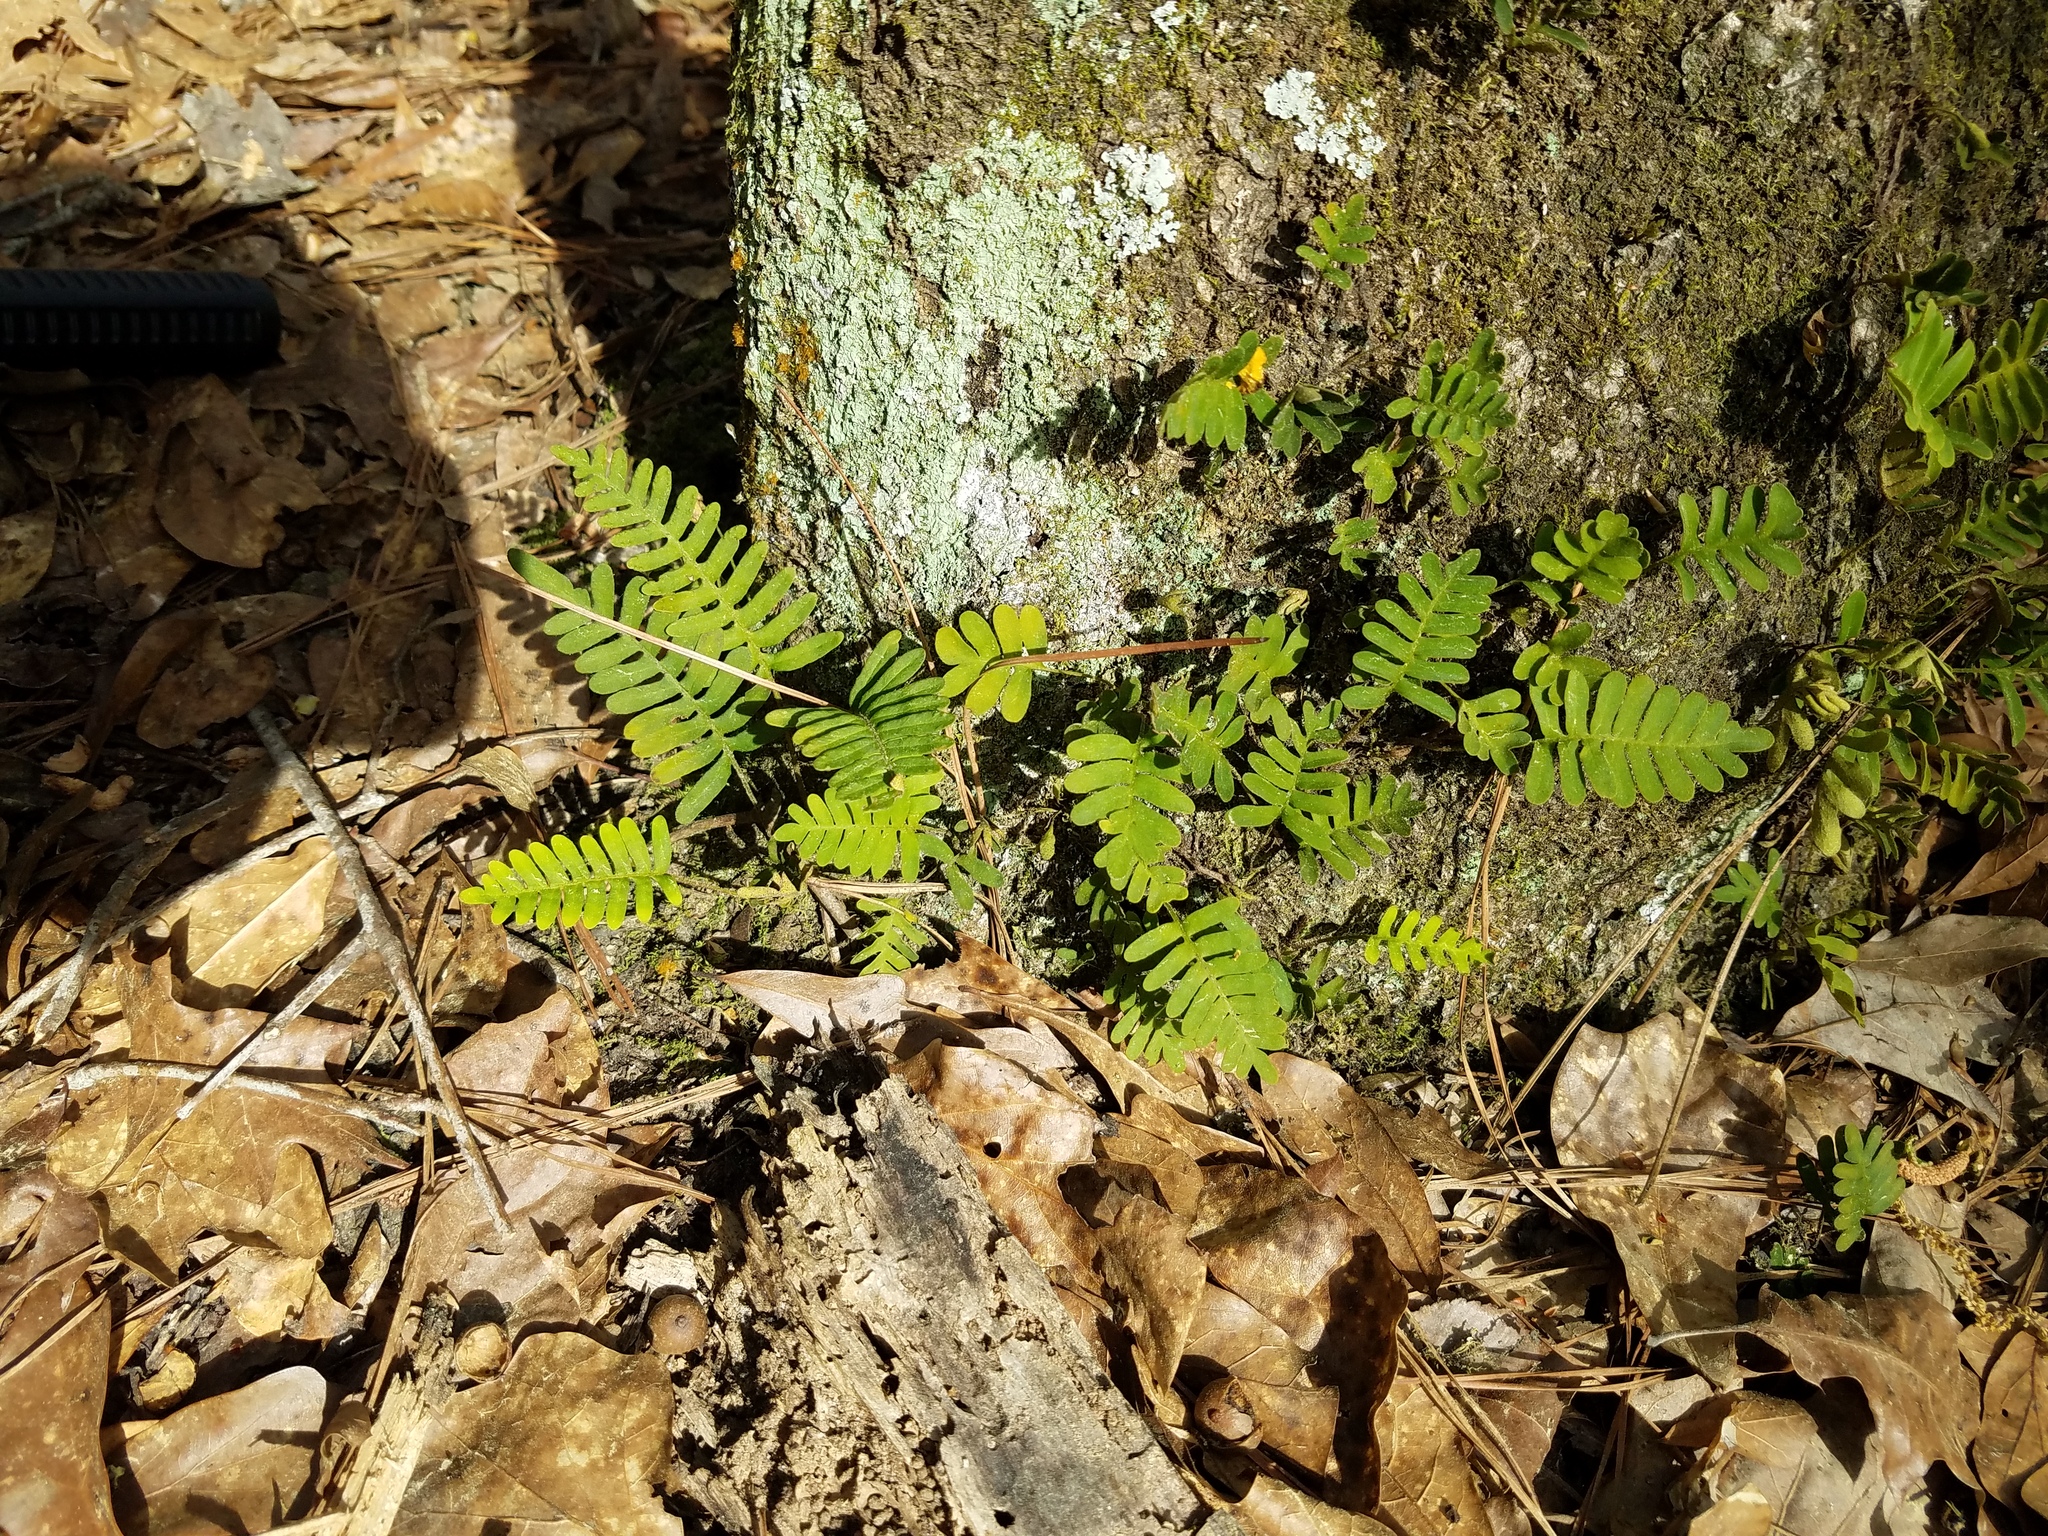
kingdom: Plantae
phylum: Tracheophyta
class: Polypodiopsida
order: Polypodiales
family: Polypodiaceae
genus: Pleopeltis
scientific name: Pleopeltis michauxiana
